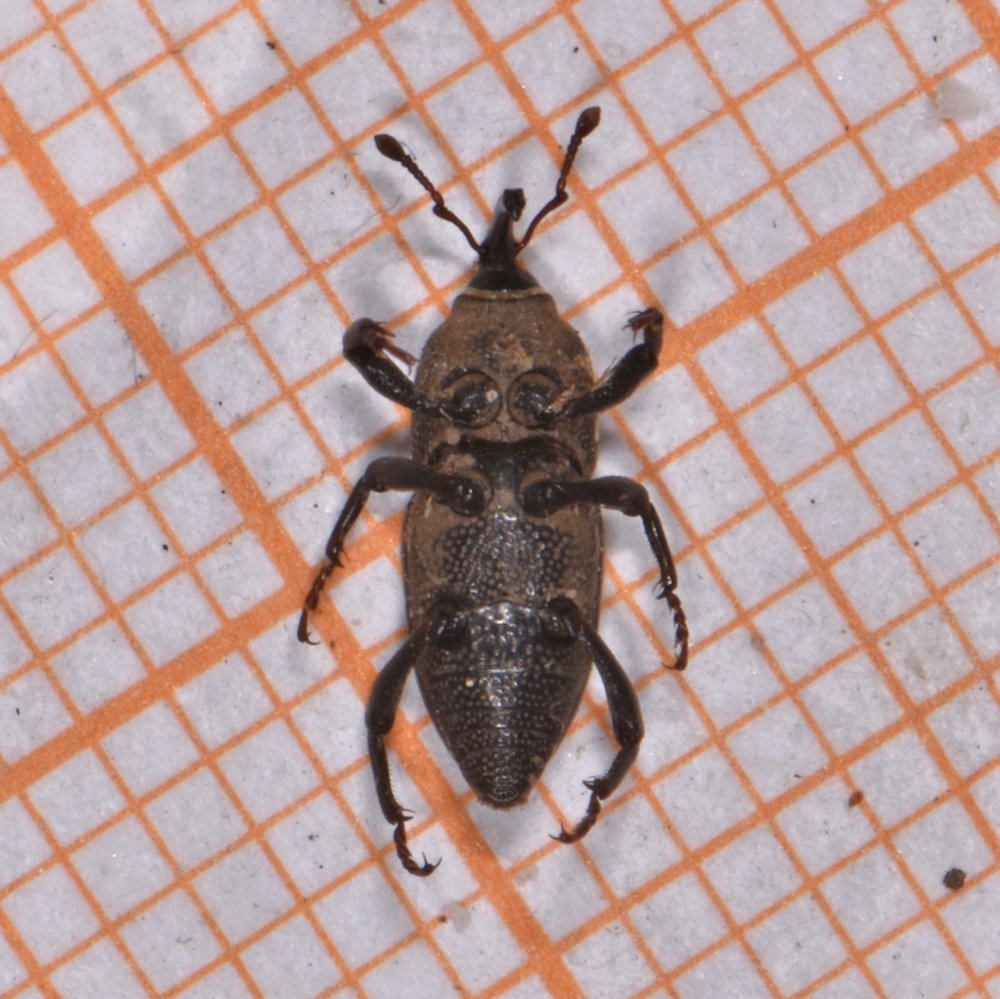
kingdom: Animalia
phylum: Arthropoda
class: Insecta
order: Coleoptera
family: Dryophthoridae
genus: Sphenophorus
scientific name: Sphenophorus interstitialis
